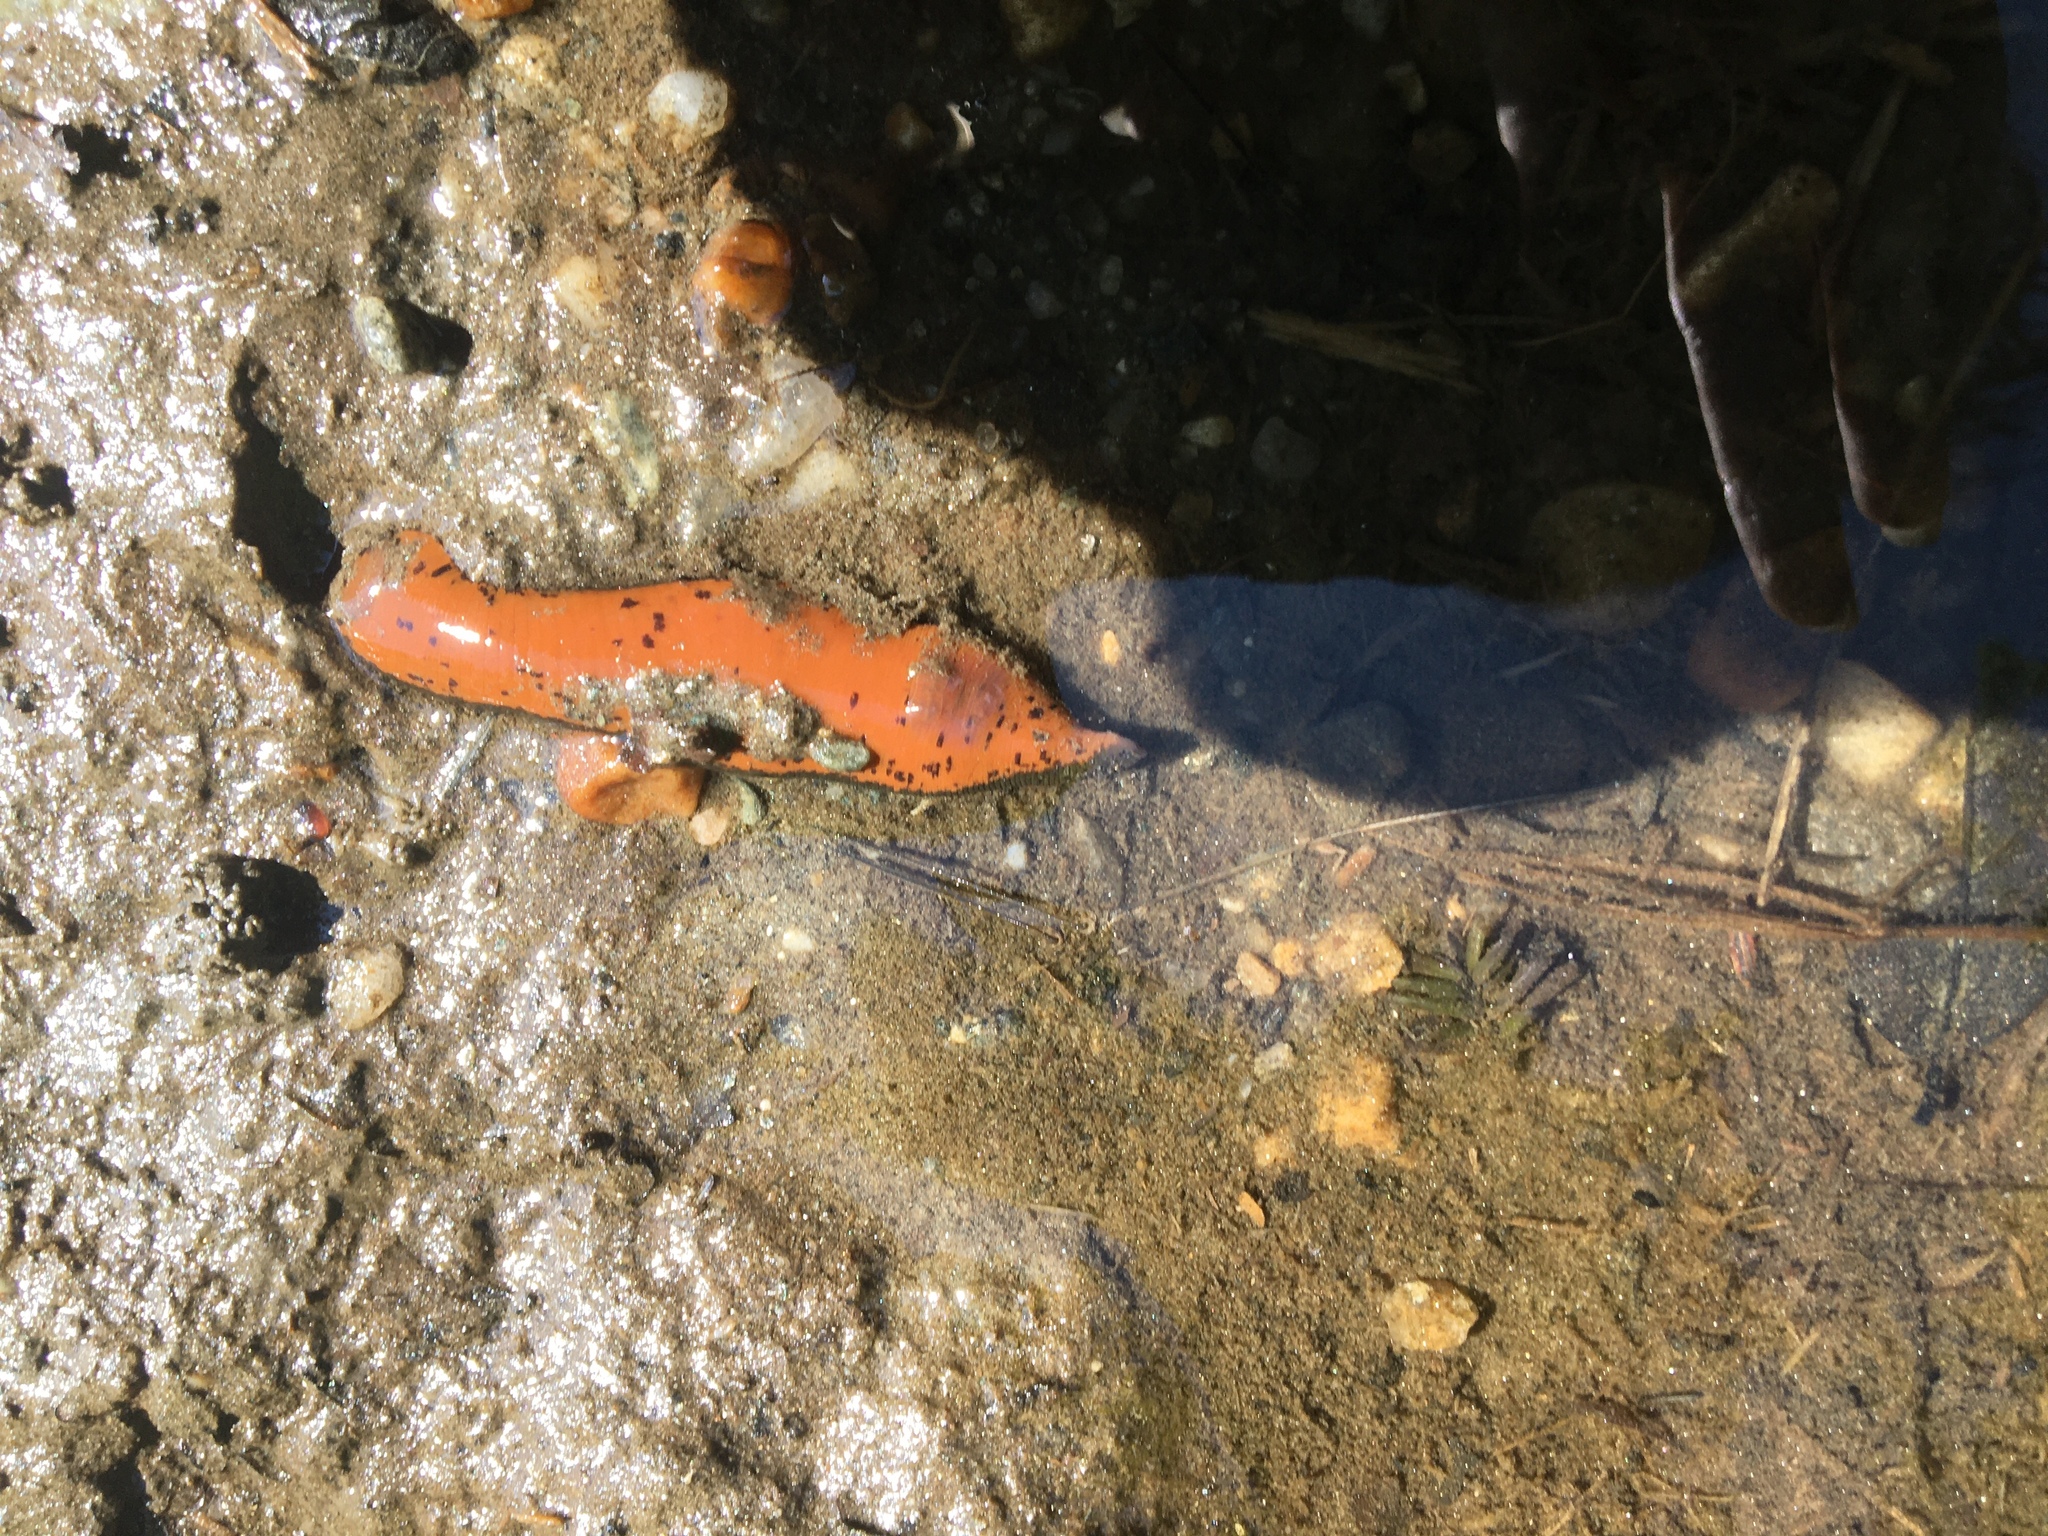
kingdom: Animalia
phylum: Annelida
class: Clitellata
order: Arhynchobdellida
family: Hirudinidae
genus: Macrobdella
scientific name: Macrobdella decora
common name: North american leech
